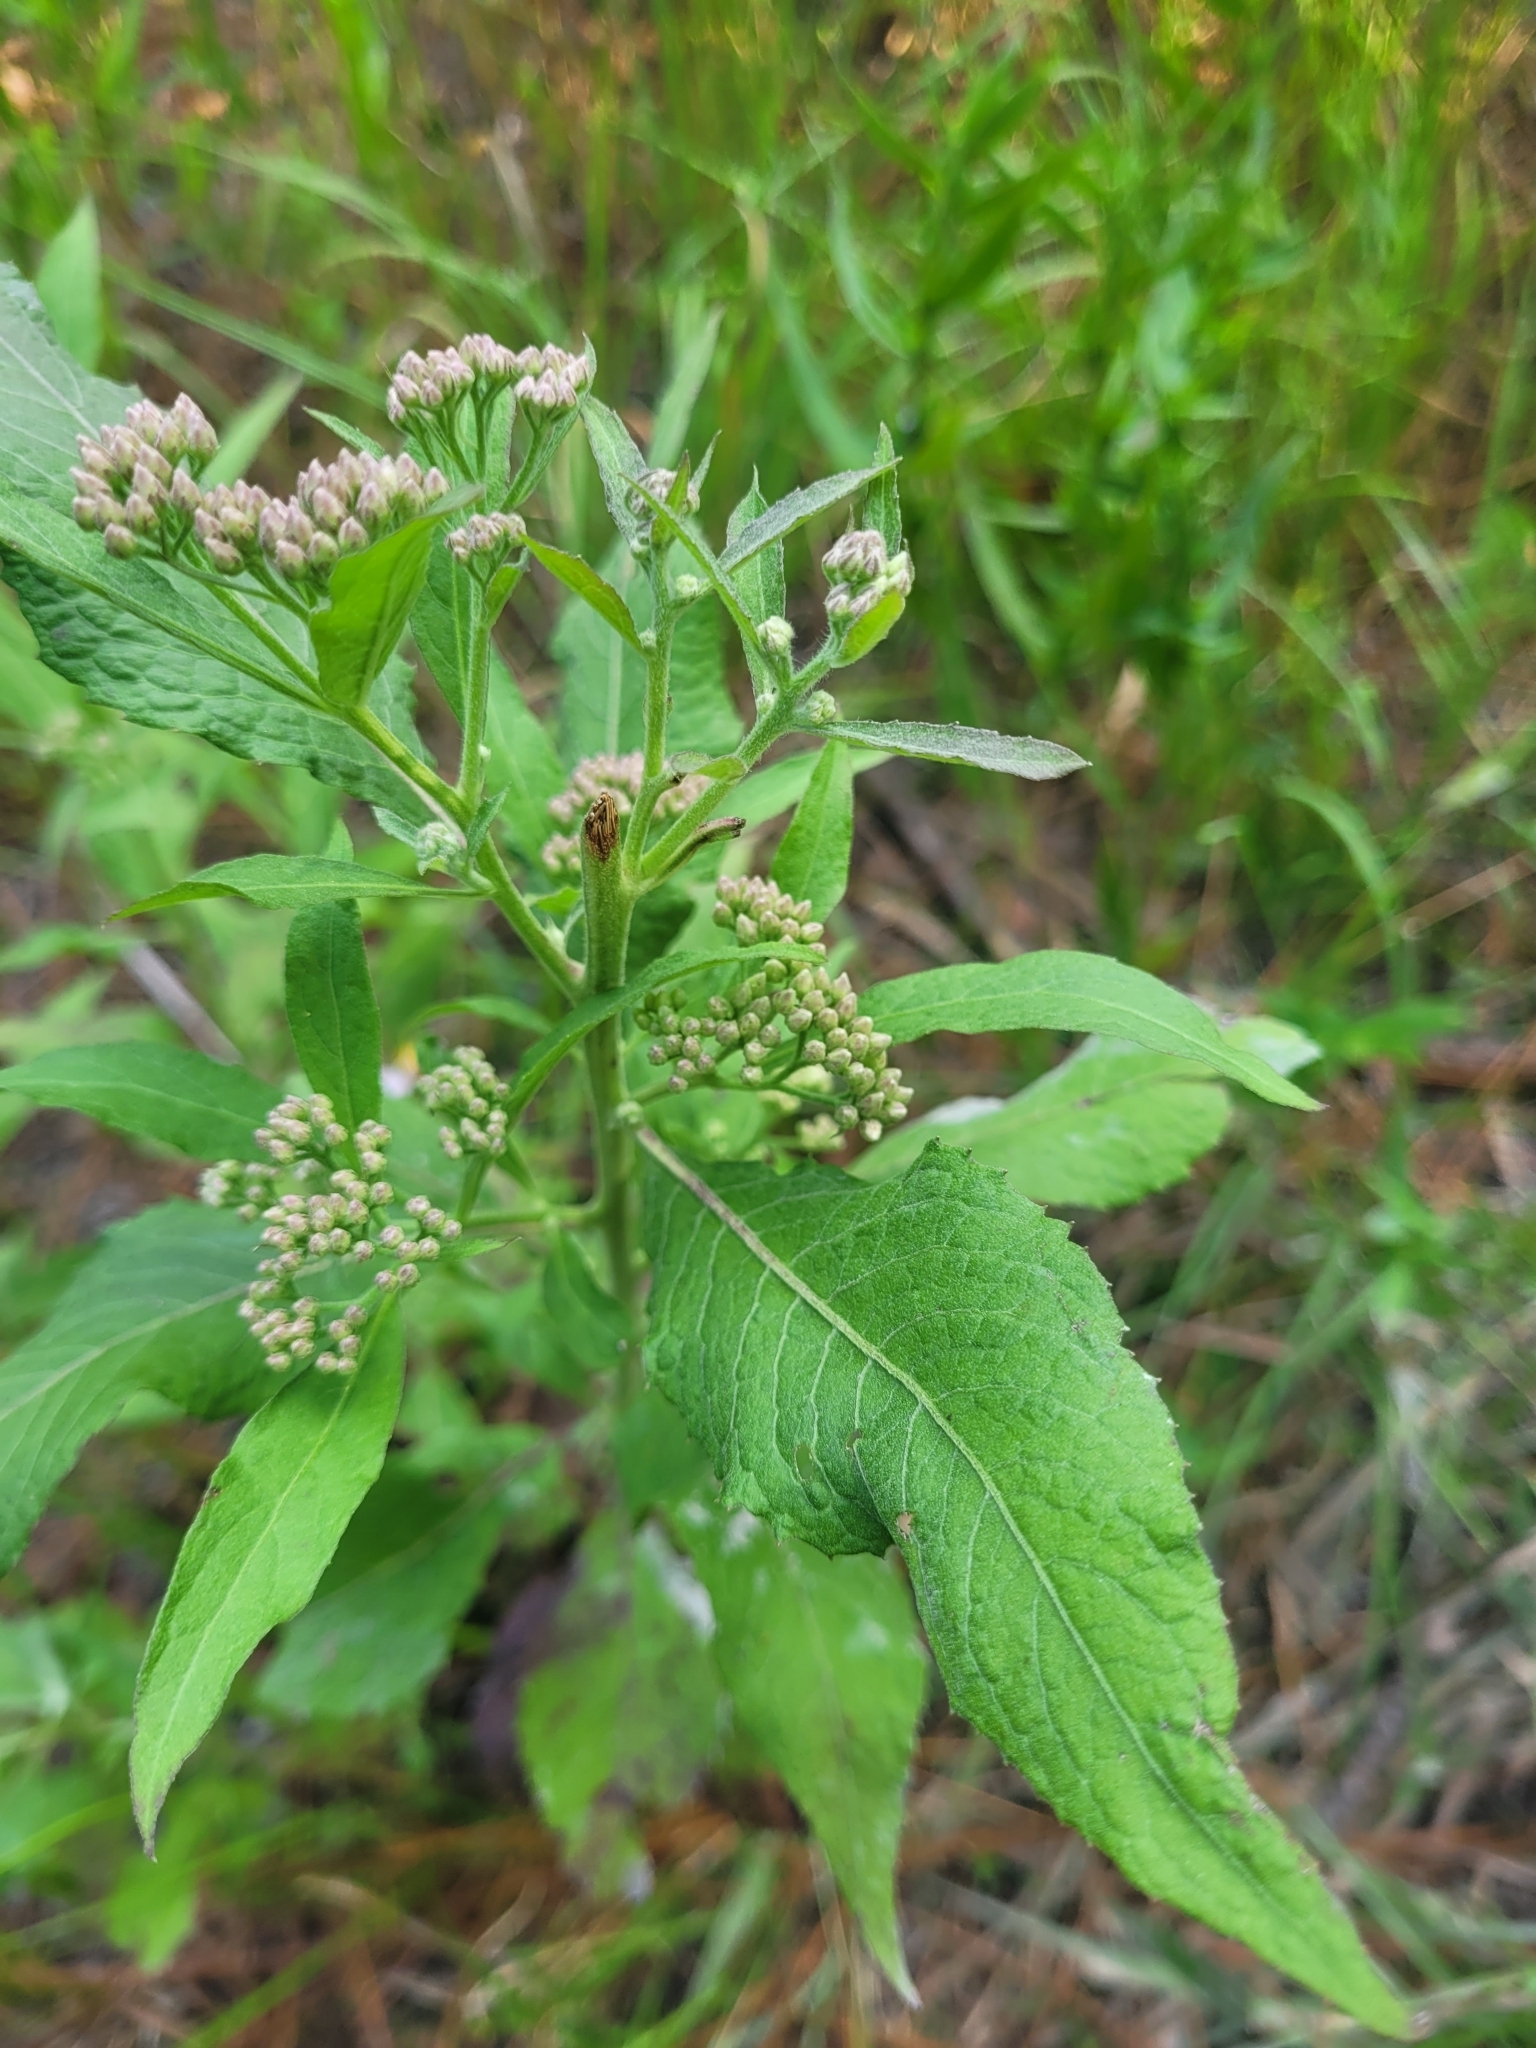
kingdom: Plantae
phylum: Tracheophyta
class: Magnoliopsida
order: Asterales
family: Asteraceae
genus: Pluchea
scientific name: Pluchea camphorata
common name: Camphor pluchea
